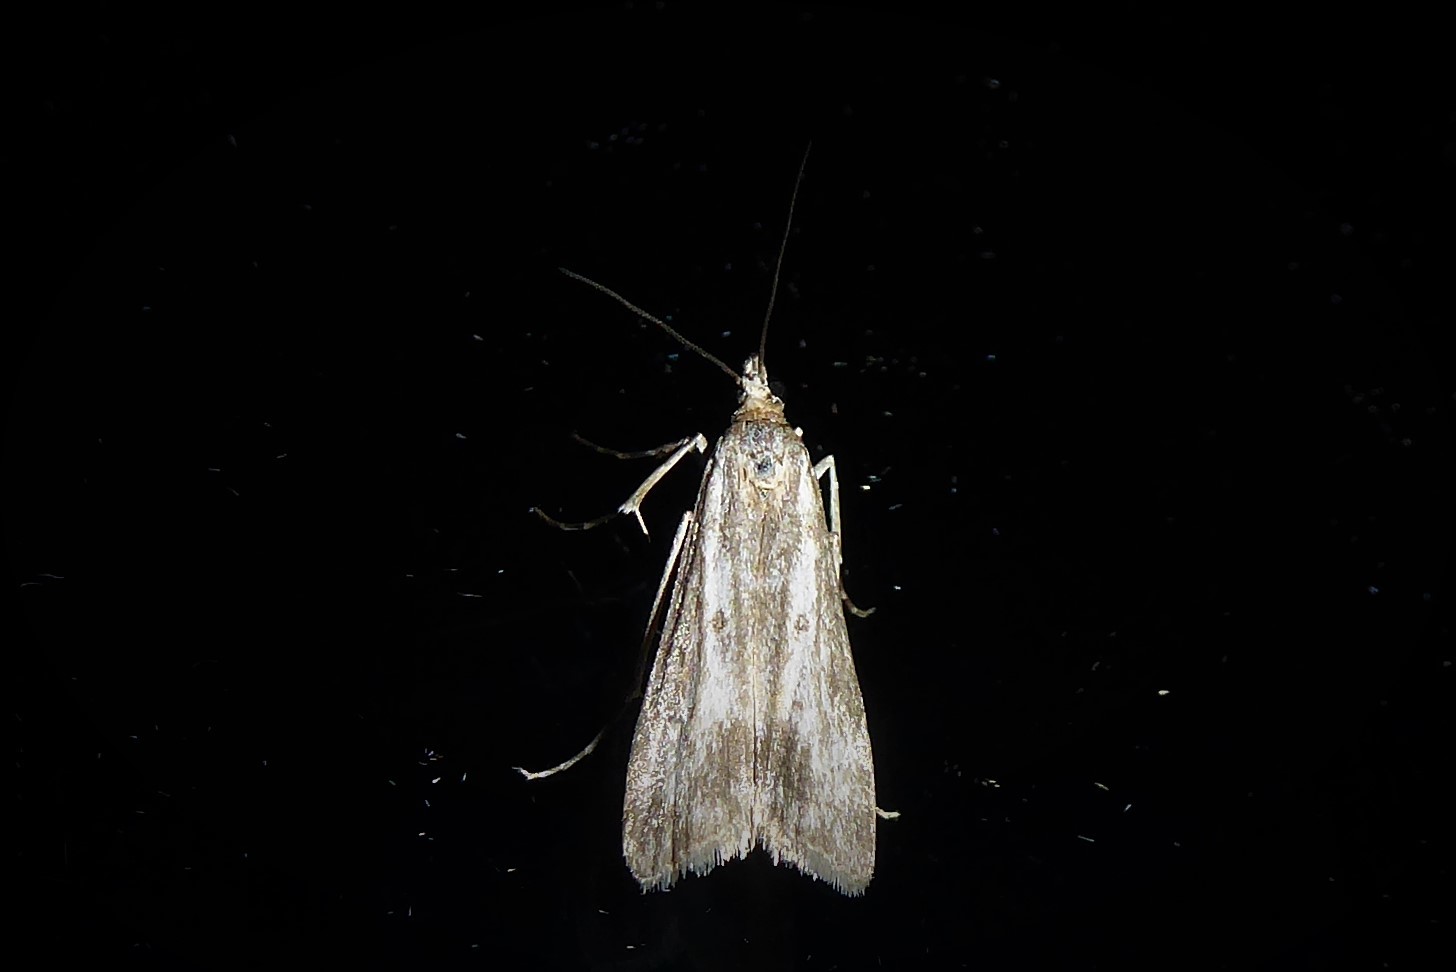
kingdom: Animalia
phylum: Arthropoda
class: Insecta
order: Lepidoptera
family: Crambidae
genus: Eudonia
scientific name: Eudonia leptalea
